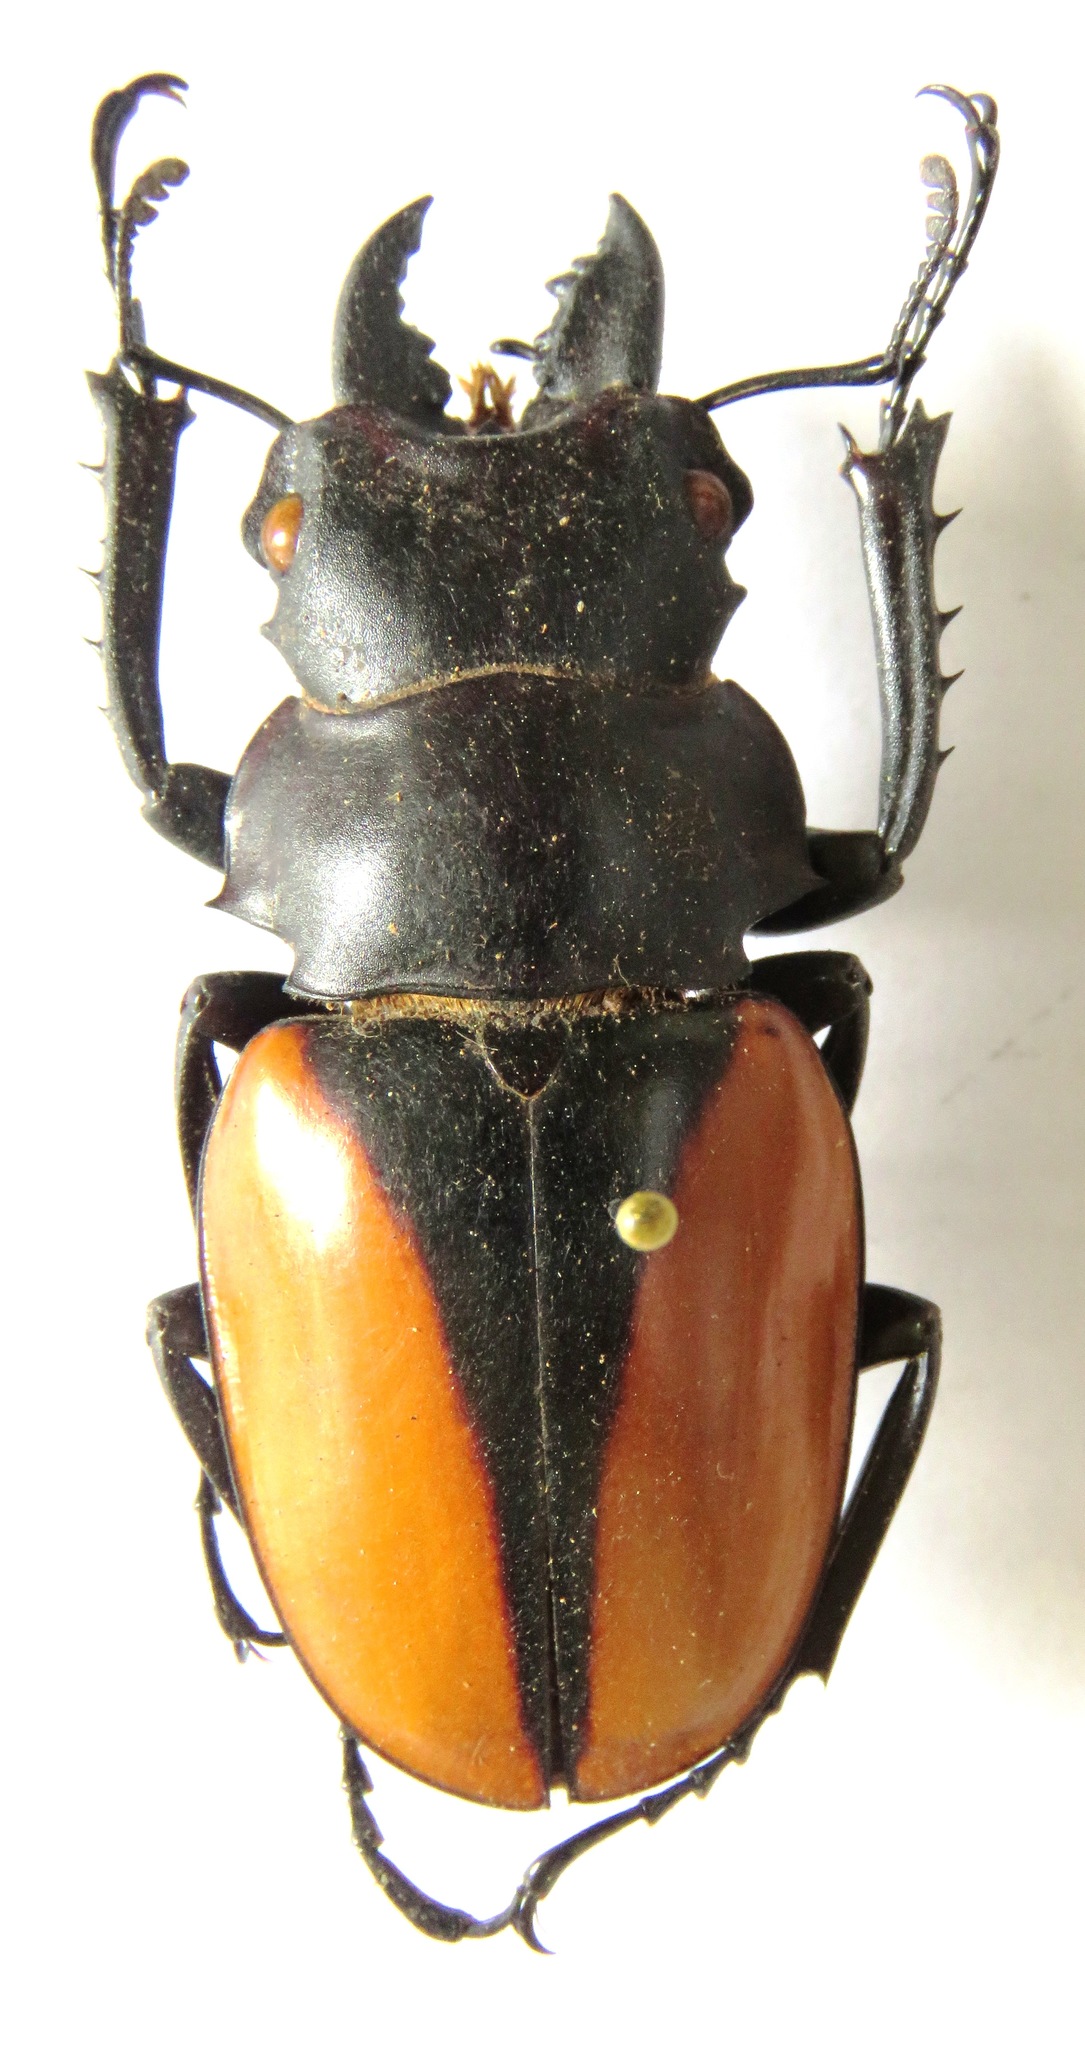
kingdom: Animalia
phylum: Arthropoda
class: Insecta
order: Coleoptera
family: Lucanidae
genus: Odontolabis
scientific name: Odontolabis cuvera
